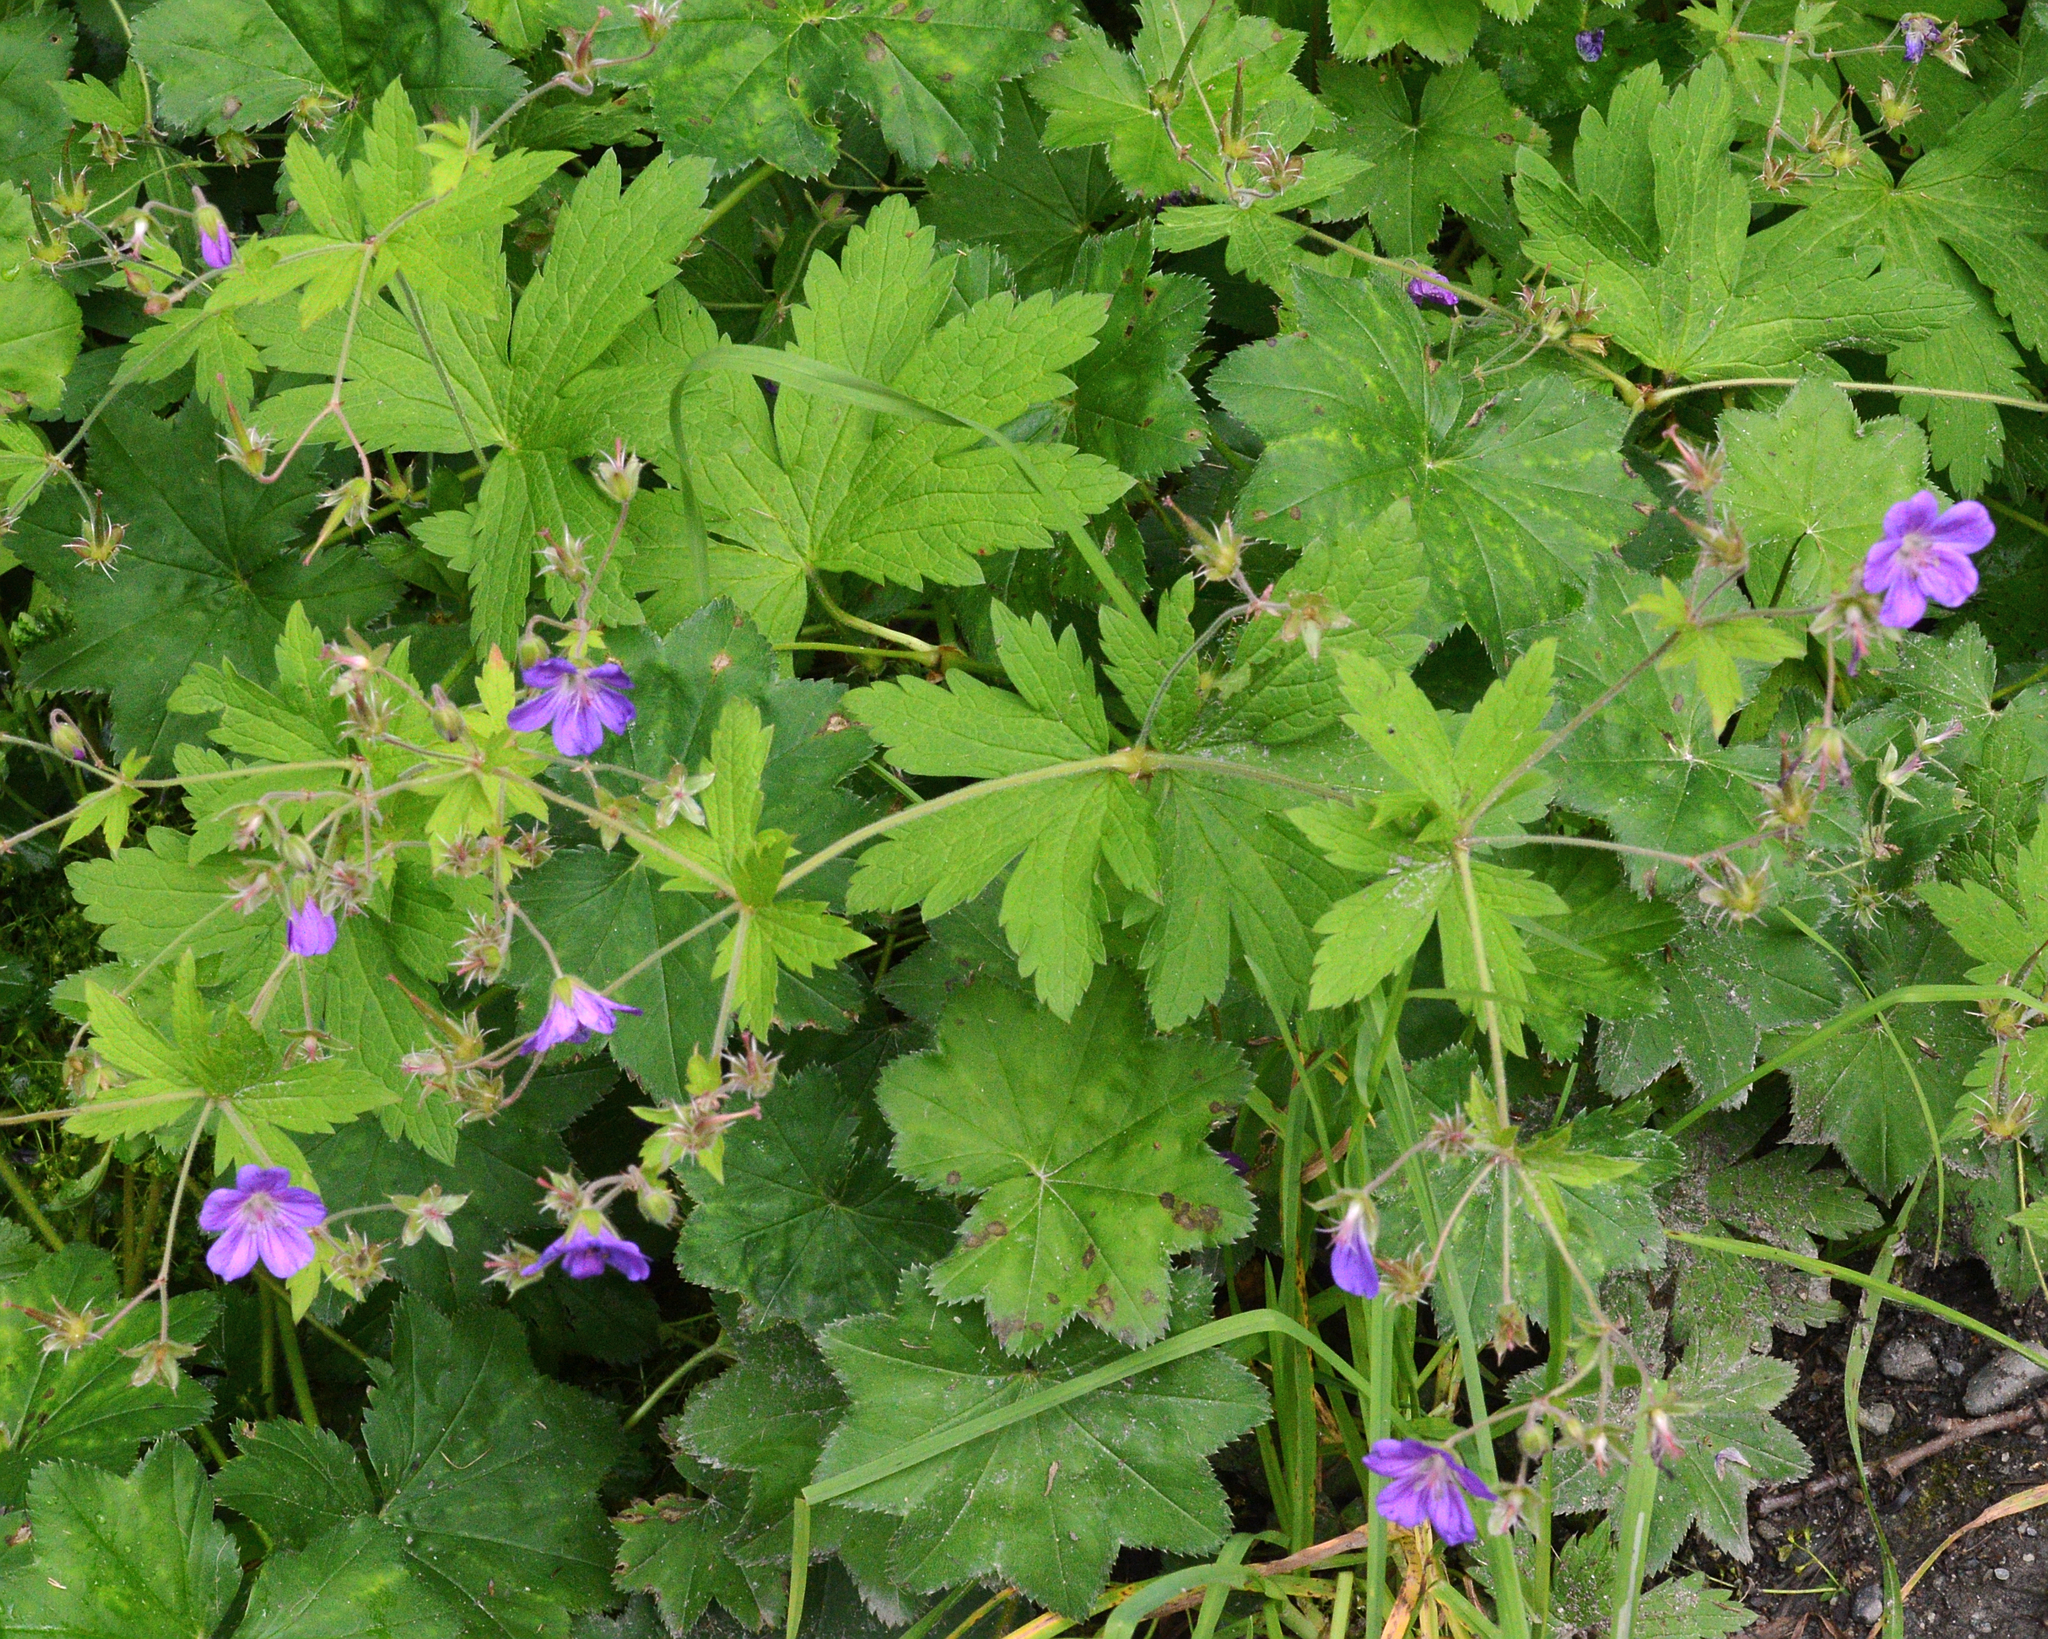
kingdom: Plantae
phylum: Tracheophyta
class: Magnoliopsida
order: Geraniales
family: Geraniaceae
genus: Geranium
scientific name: Geranium sylvaticum
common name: Wood crane's-bill
